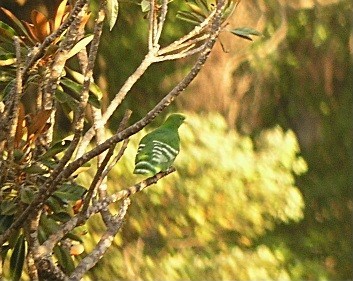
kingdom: Animalia
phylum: Chordata
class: Aves
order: Columbiformes
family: Columbidae
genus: Drepanoptila
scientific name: Drepanoptila holosericea
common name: Cloven-feathered dove
